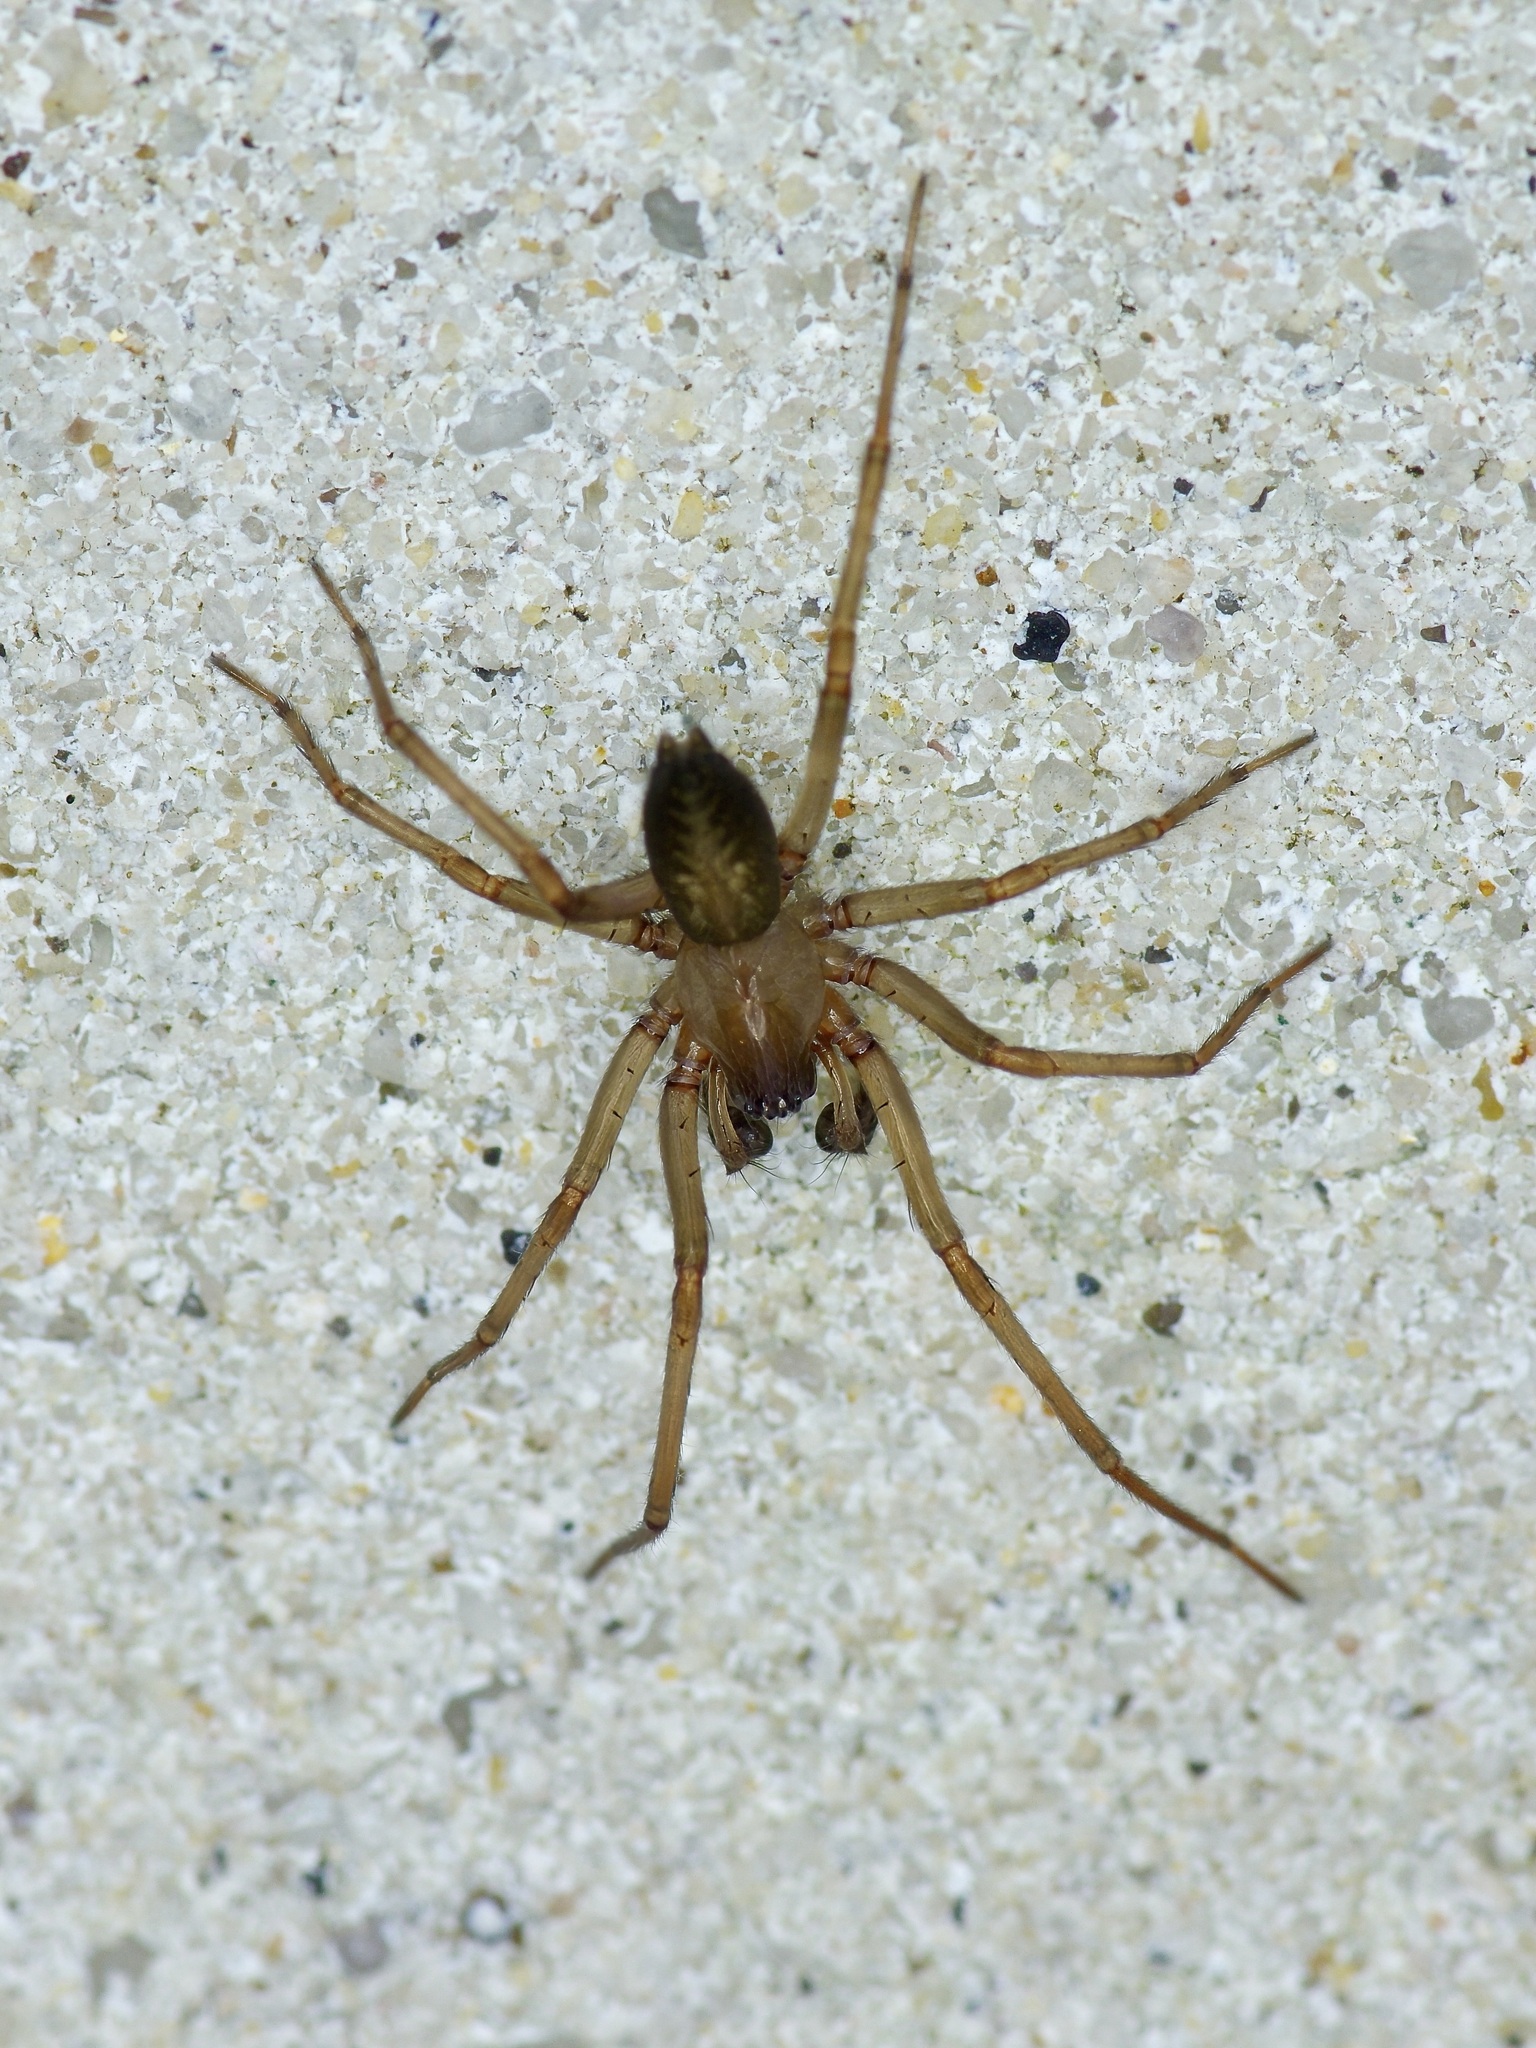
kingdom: Animalia
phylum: Arthropoda
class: Arachnida
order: Araneae
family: Desidae
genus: Metaltella
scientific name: Metaltella simoni
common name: Cribellate spider
